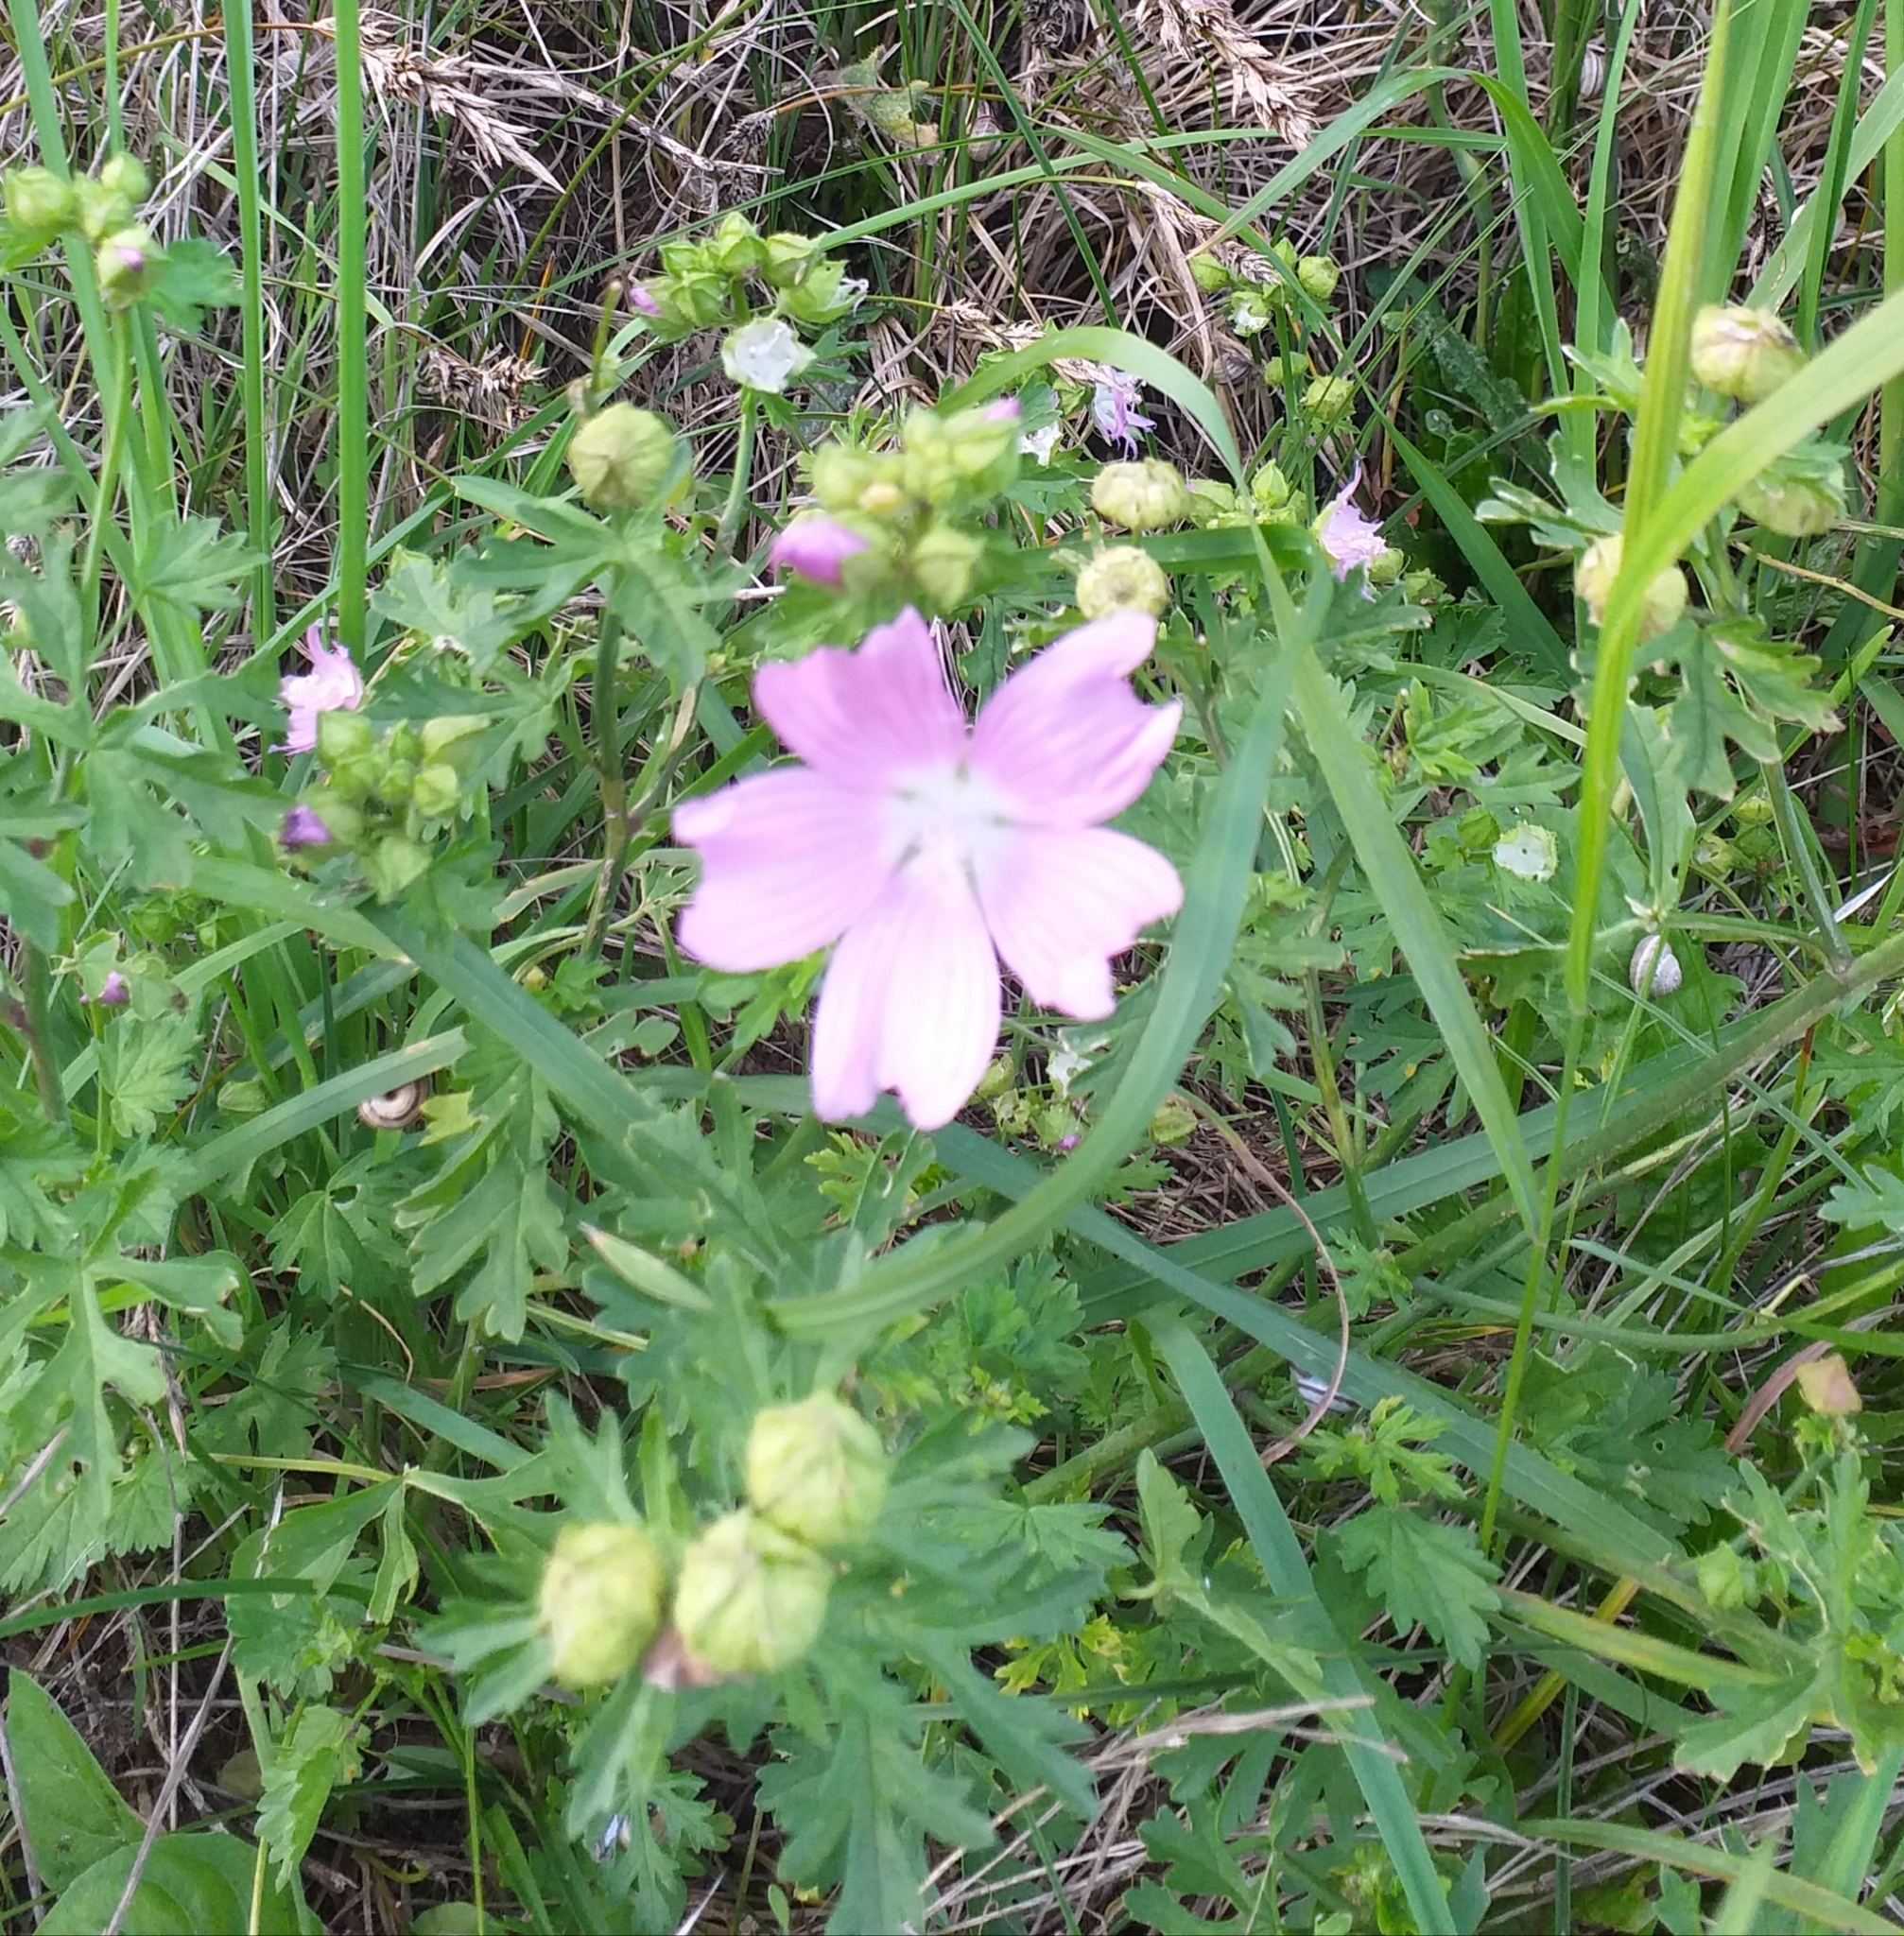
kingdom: Plantae
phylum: Tracheophyta
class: Magnoliopsida
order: Malvales
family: Malvaceae
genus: Malva
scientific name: Malva moschata
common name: Musk mallow
